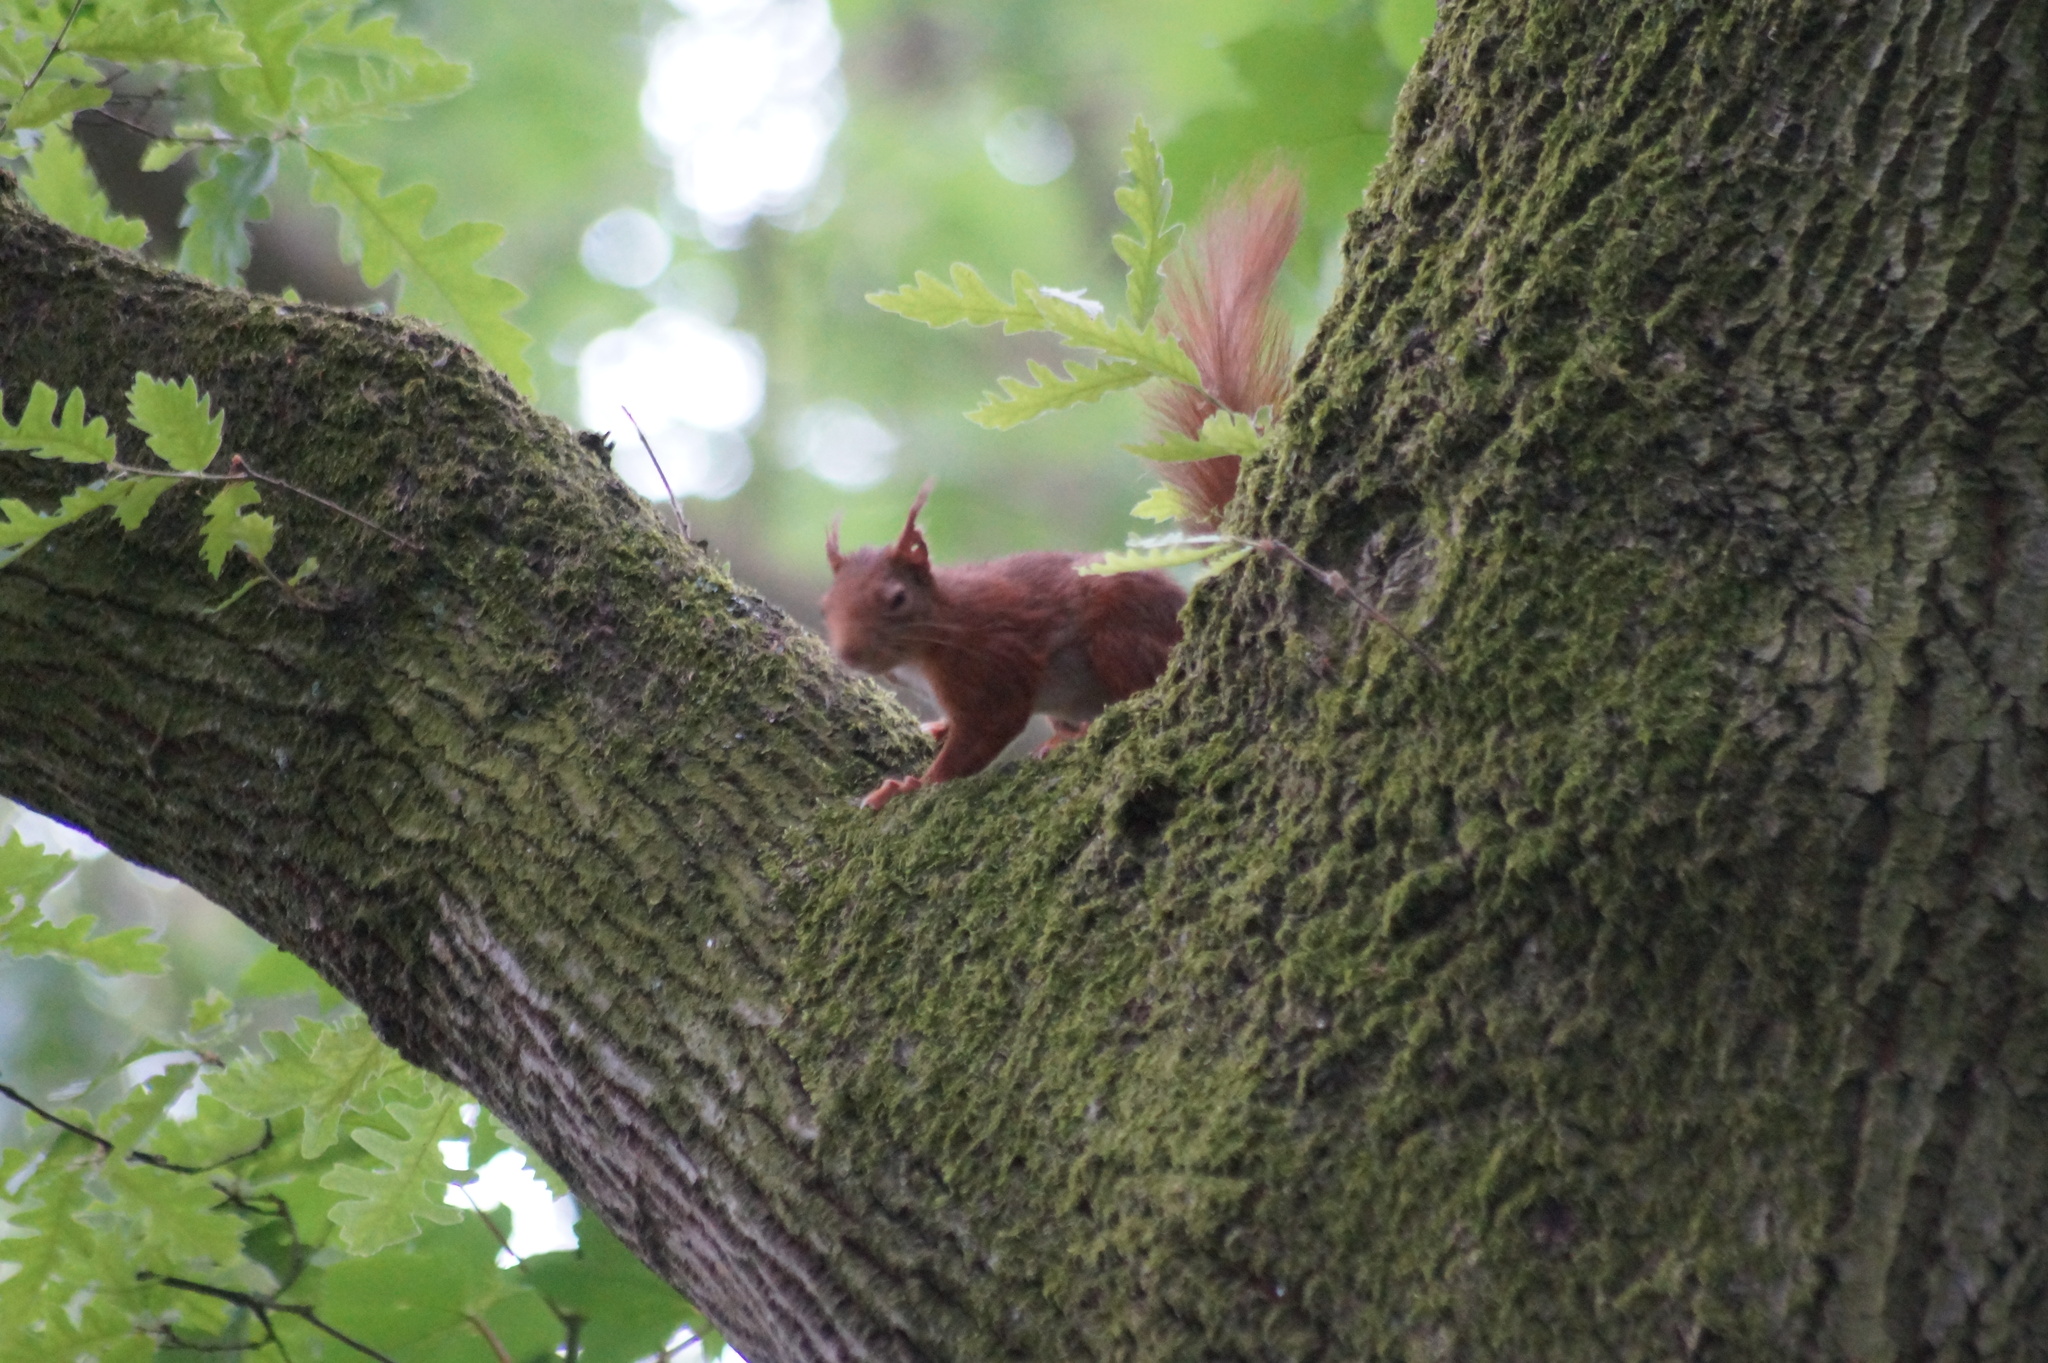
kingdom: Animalia
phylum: Chordata
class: Mammalia
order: Rodentia
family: Sciuridae
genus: Sciurus
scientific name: Sciurus vulgaris
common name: Eurasian red squirrel
